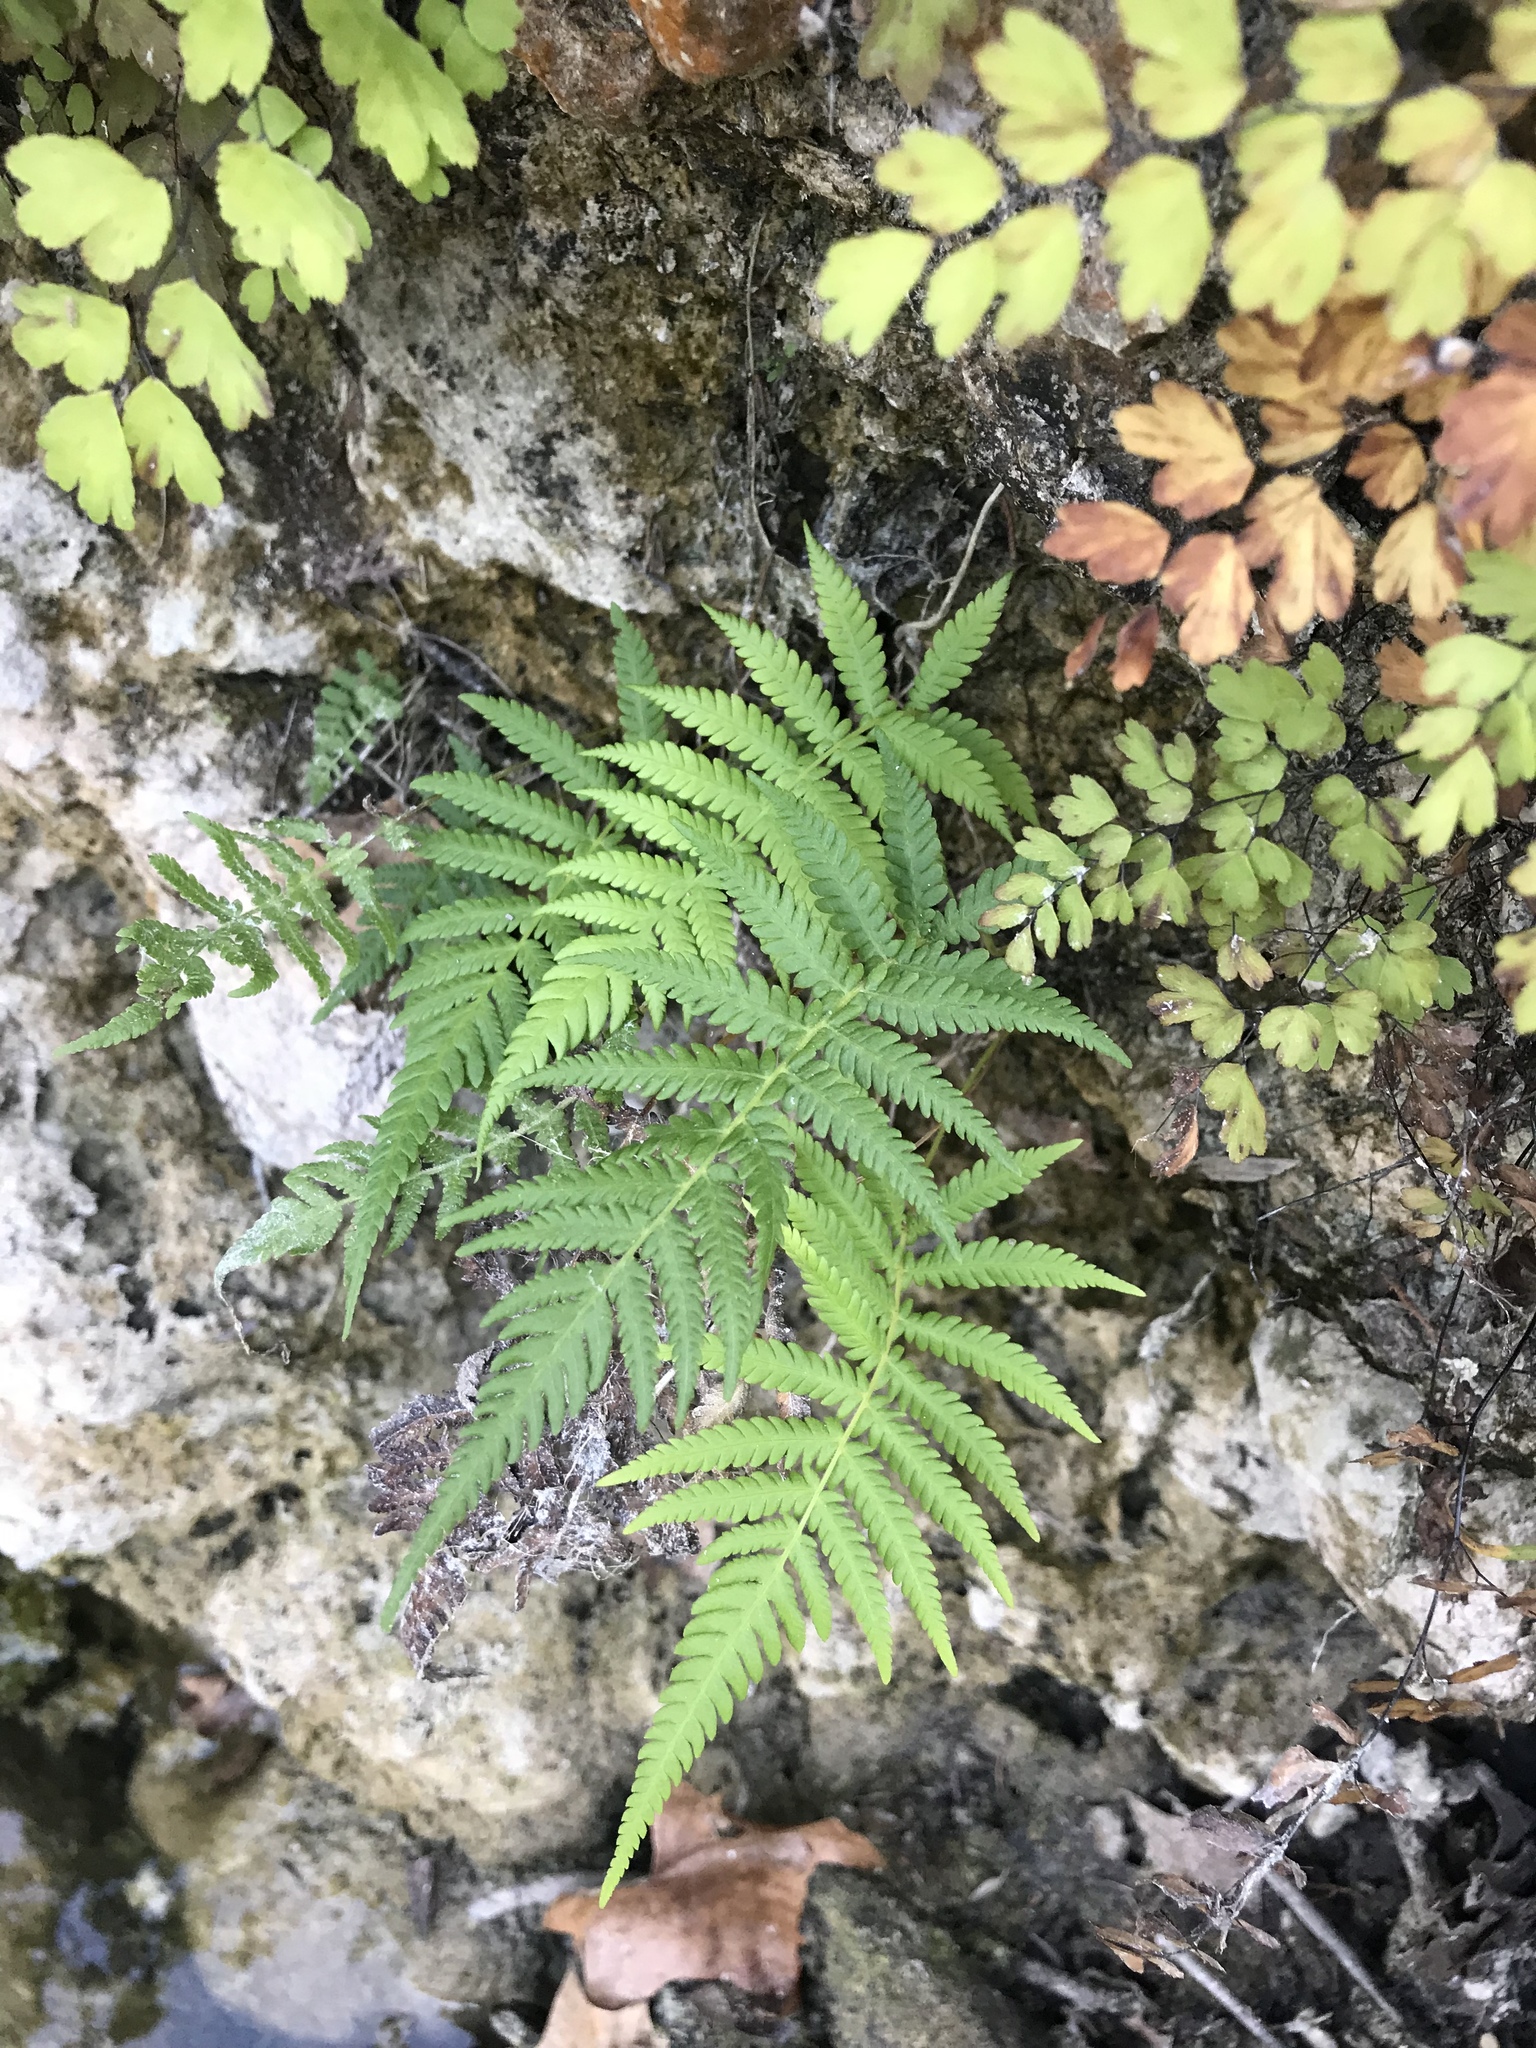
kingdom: Plantae
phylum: Tracheophyta
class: Polypodiopsida
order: Polypodiales
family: Thelypteridaceae
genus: Pelazoneuron
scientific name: Pelazoneuron ovatum
